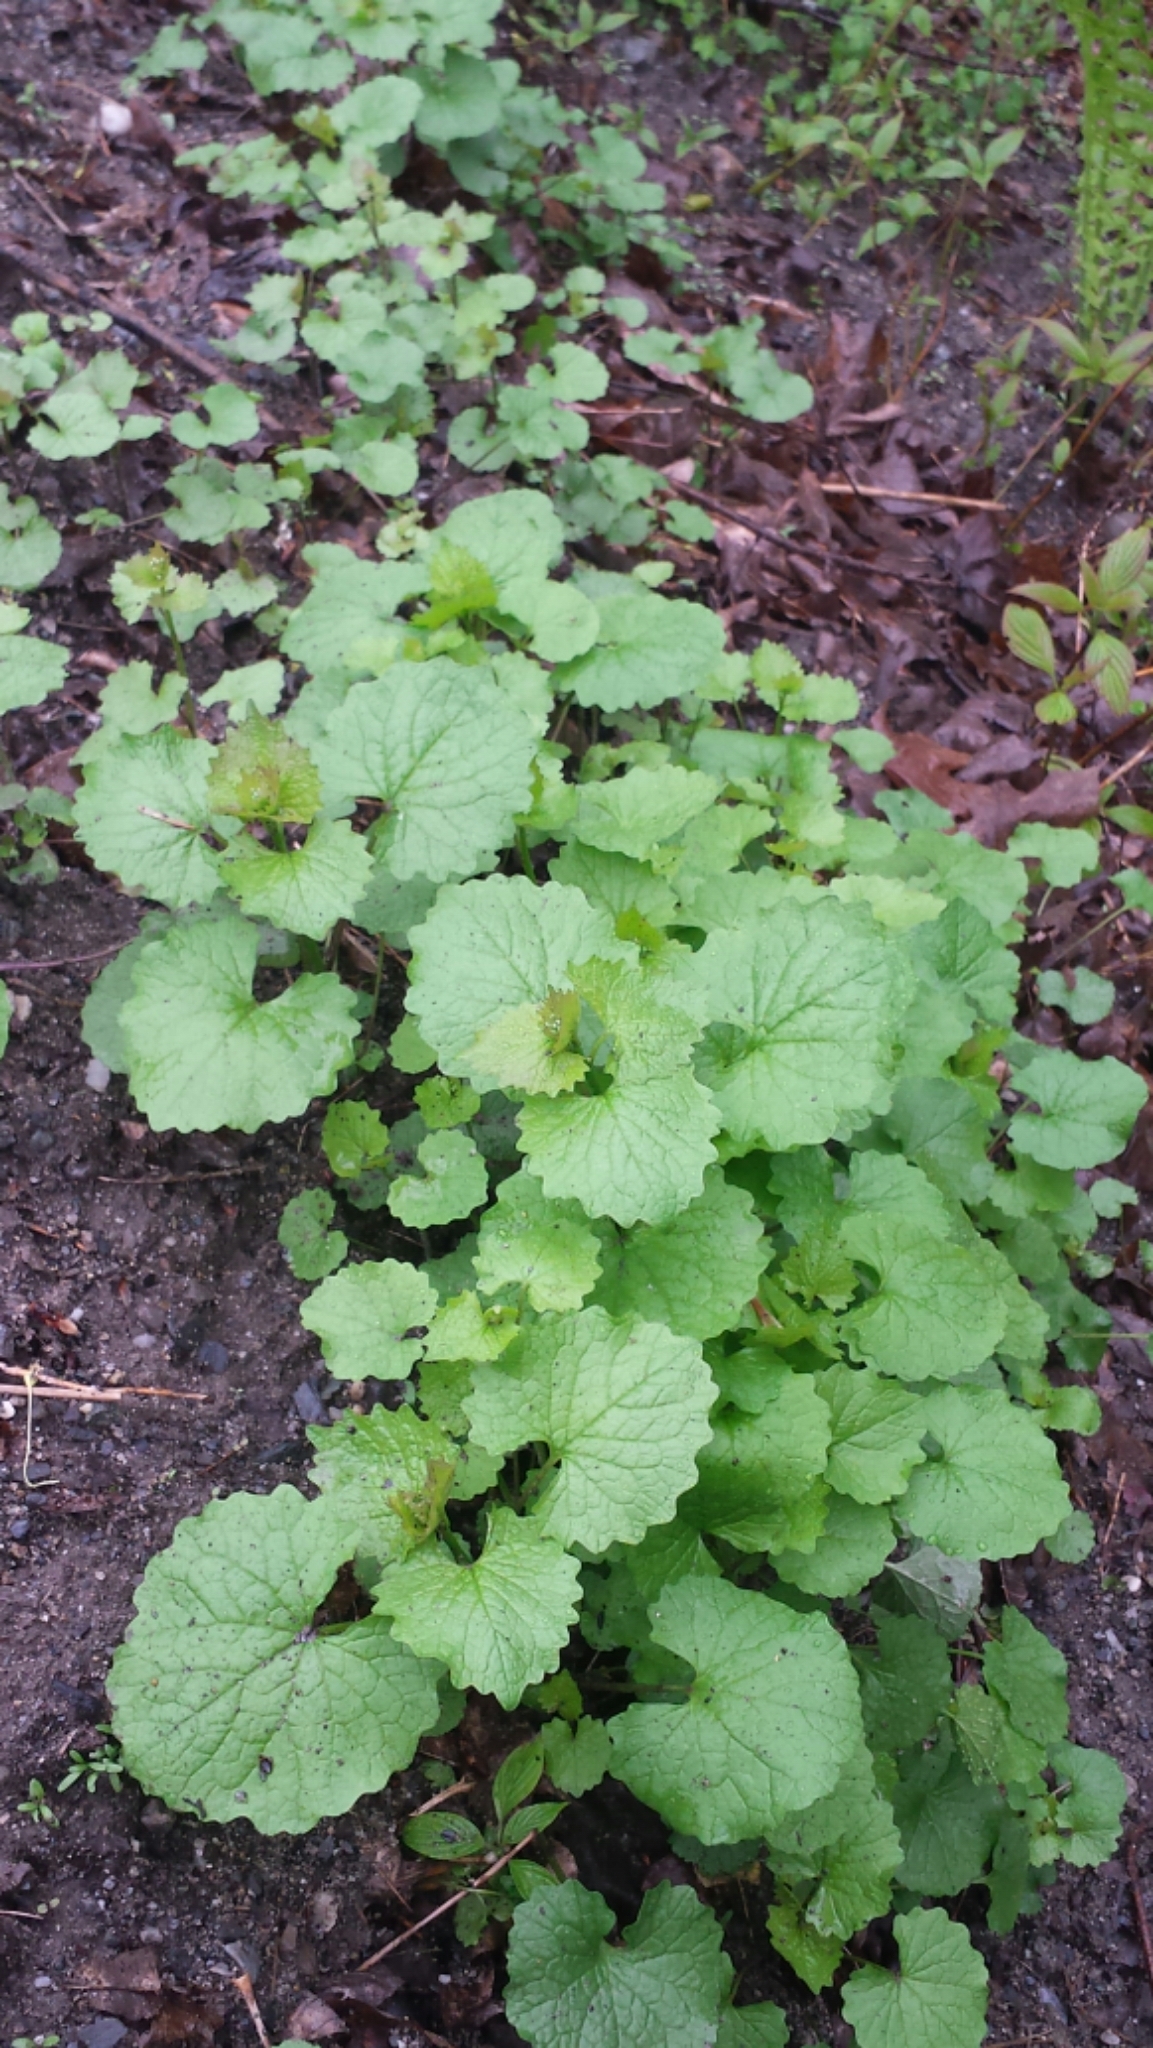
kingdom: Plantae
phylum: Tracheophyta
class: Magnoliopsida
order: Brassicales
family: Brassicaceae
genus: Alliaria
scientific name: Alliaria petiolata
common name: Garlic mustard
